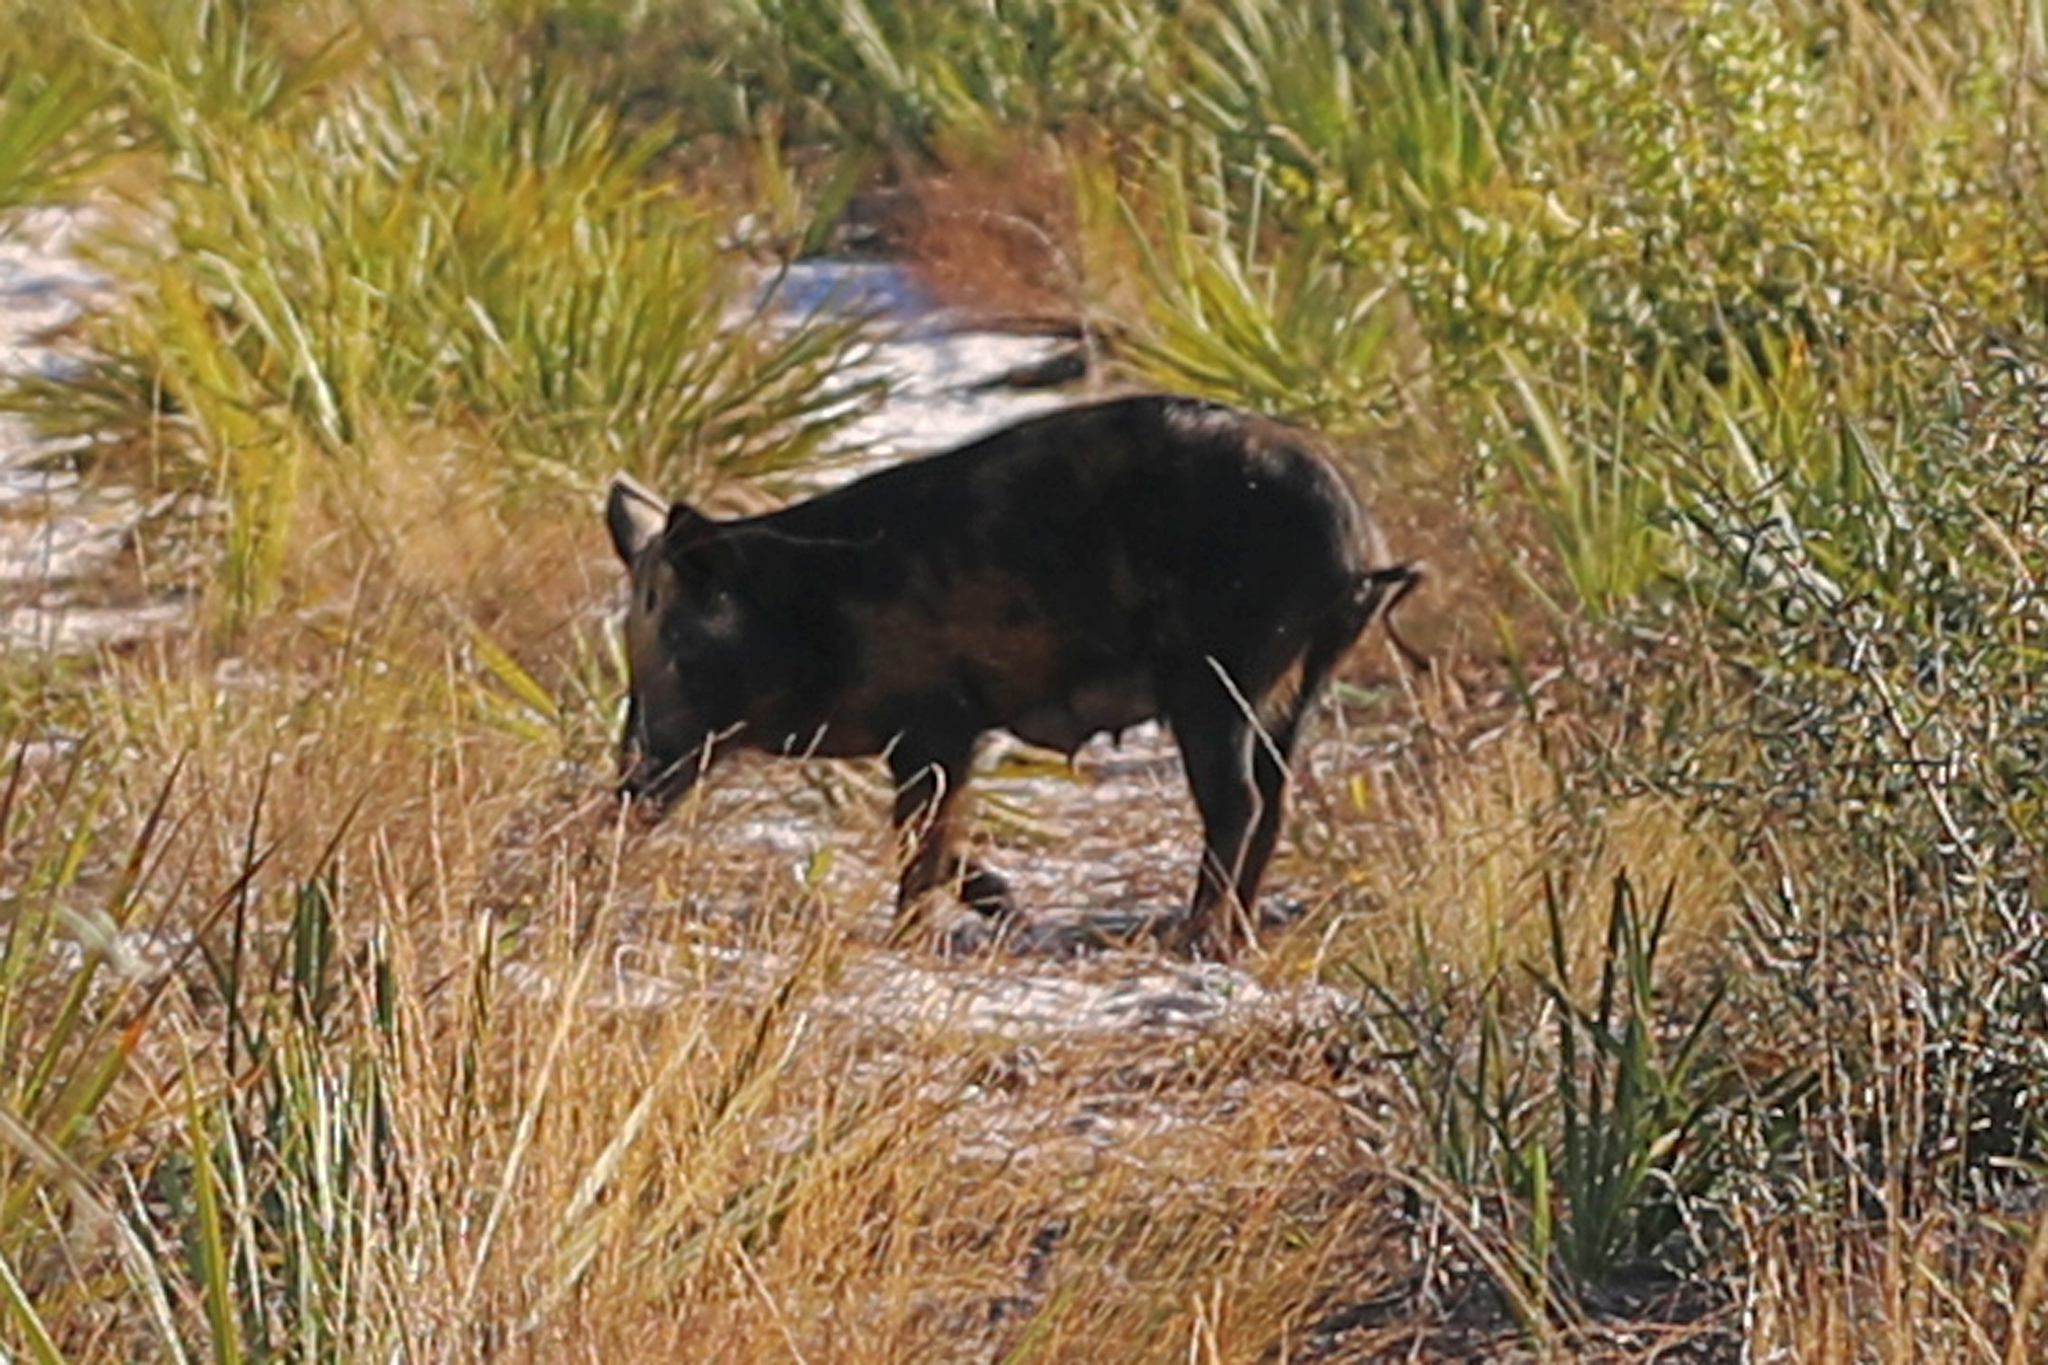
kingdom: Animalia
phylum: Chordata
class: Mammalia
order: Artiodactyla
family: Suidae
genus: Sus
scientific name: Sus scrofa
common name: Wild boar
